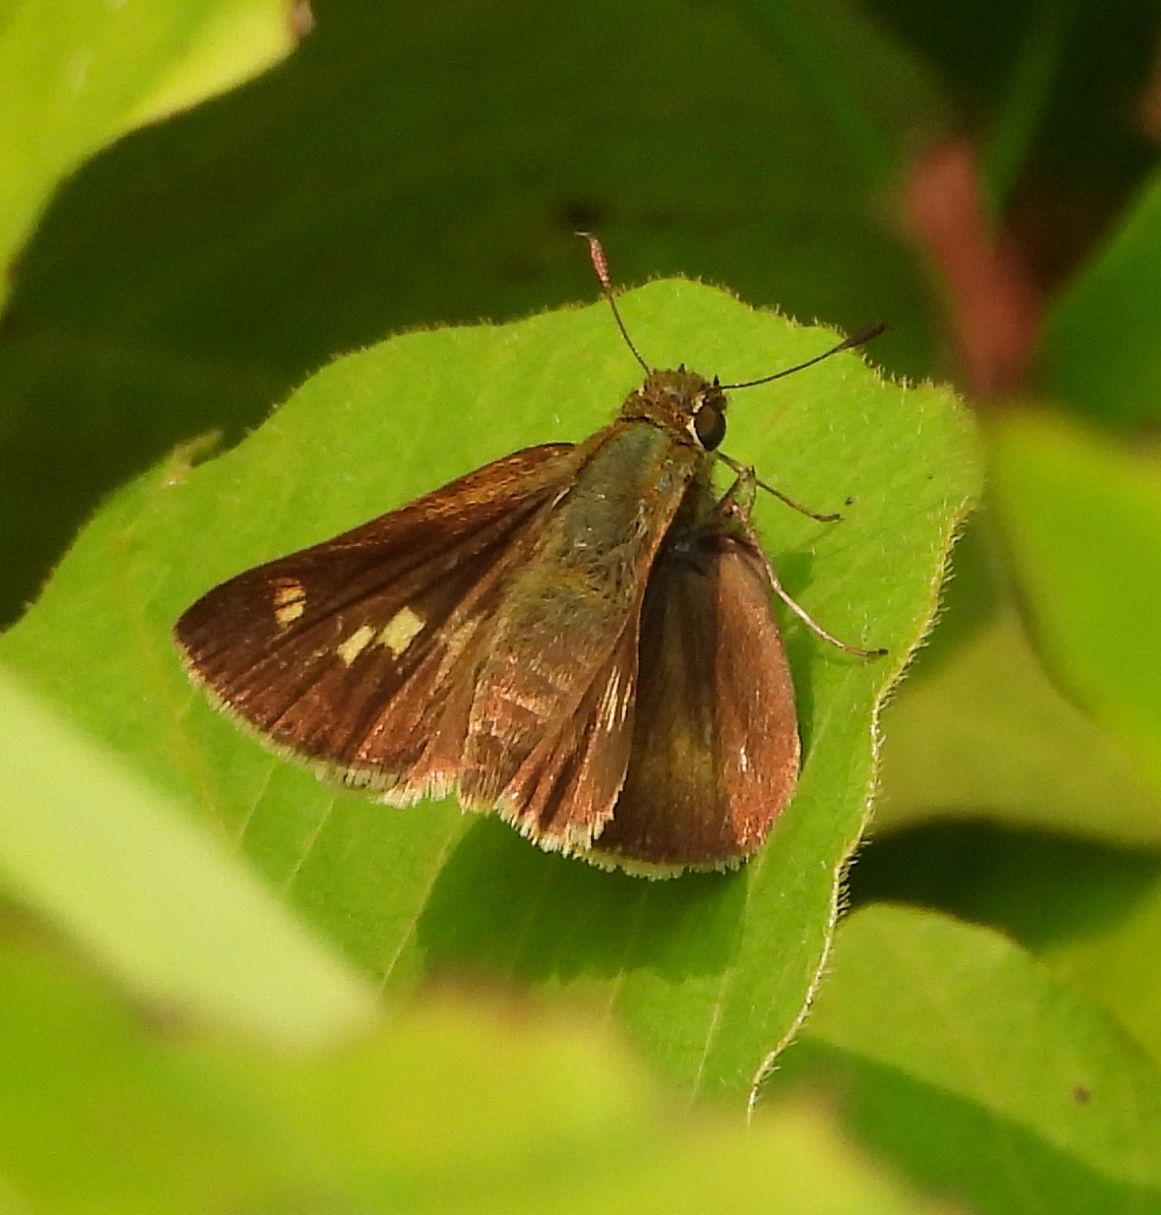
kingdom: Animalia
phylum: Arthropoda
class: Insecta
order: Lepidoptera
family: Hesperiidae
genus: Polites
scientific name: Polites egeremet
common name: Northern broken-dash
